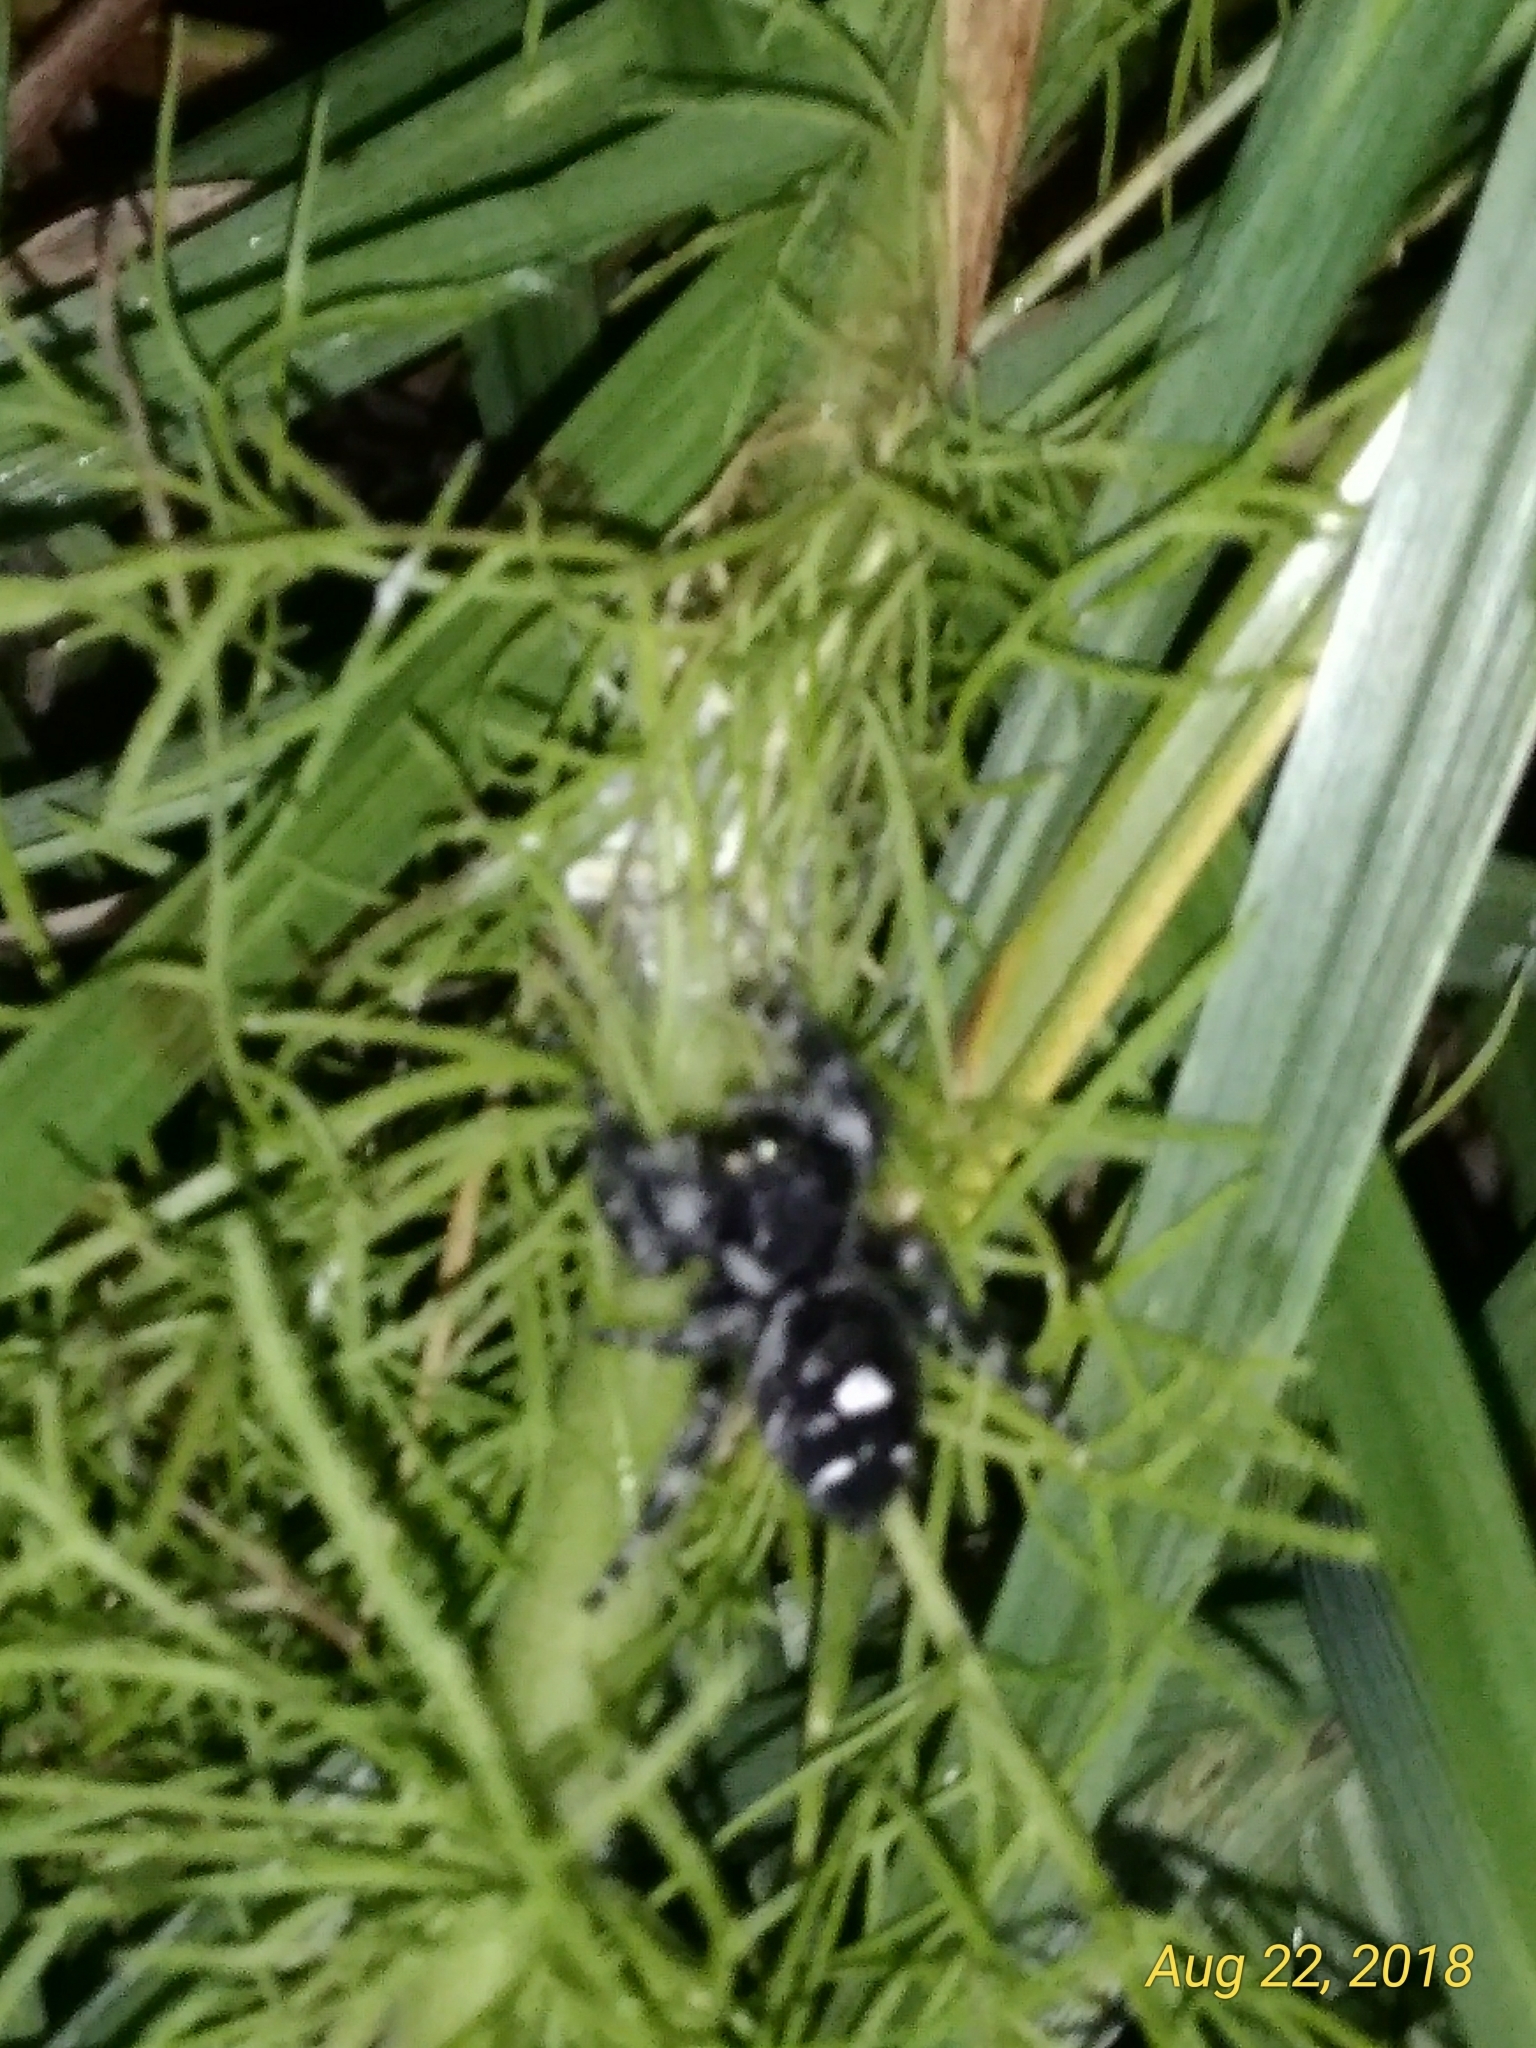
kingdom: Animalia
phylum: Arthropoda
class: Arachnida
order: Araneae
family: Salticidae
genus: Phidippus
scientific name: Phidippus audax
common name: Bold jumper
